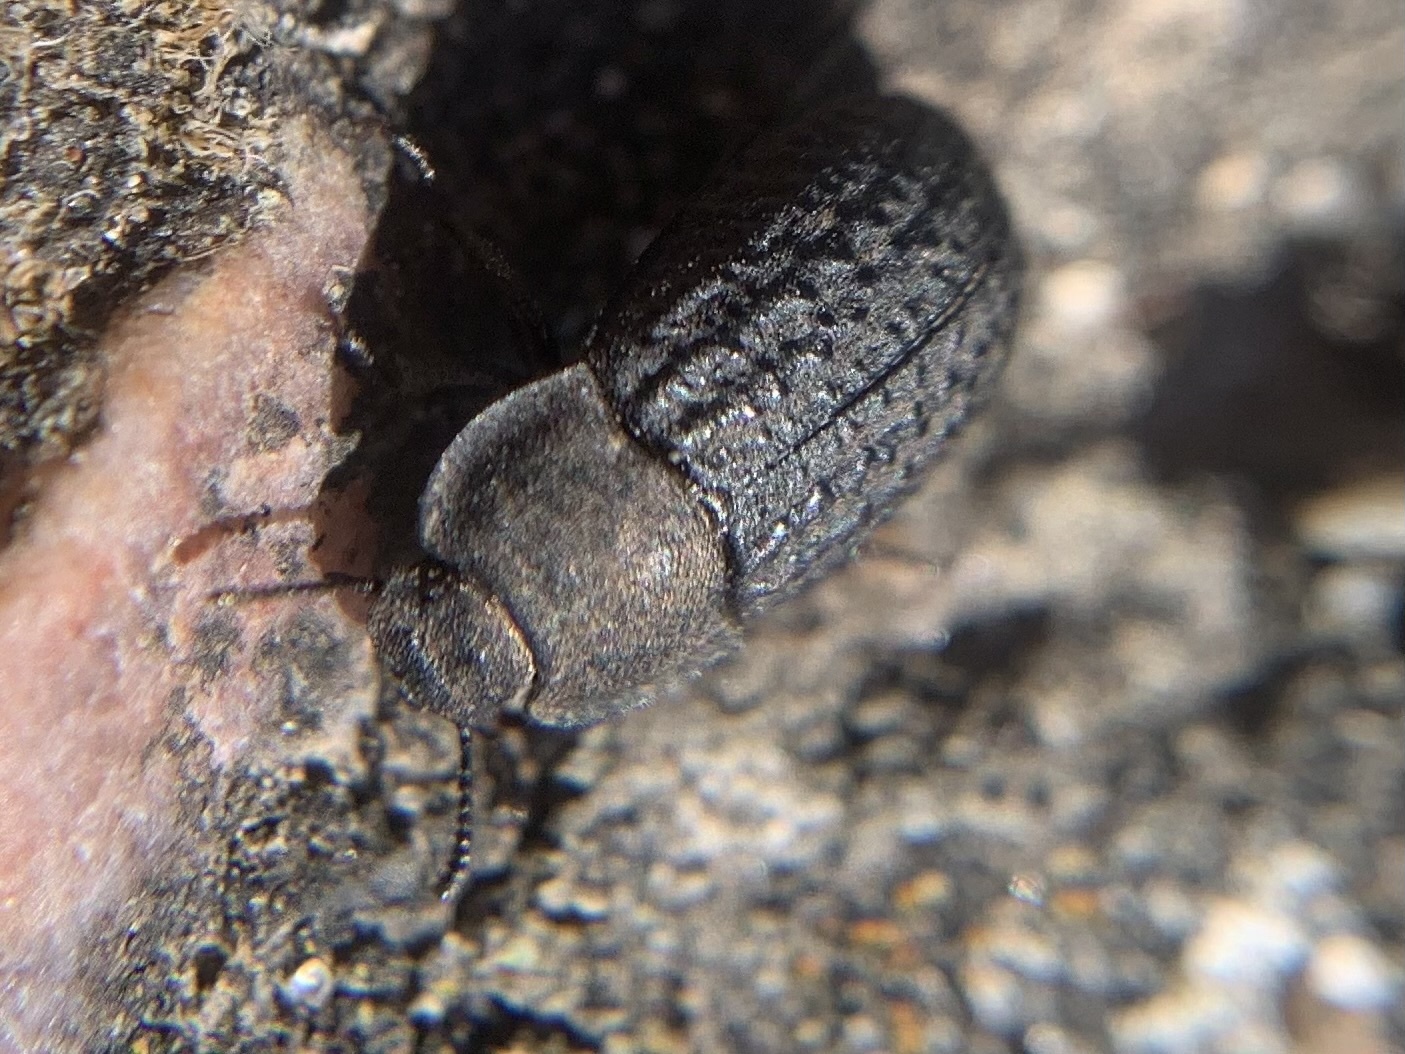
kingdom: Animalia
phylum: Arthropoda
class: Insecta
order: Coleoptera
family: Tenebrionidae
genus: Opatrum
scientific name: Opatrum sabulosum
